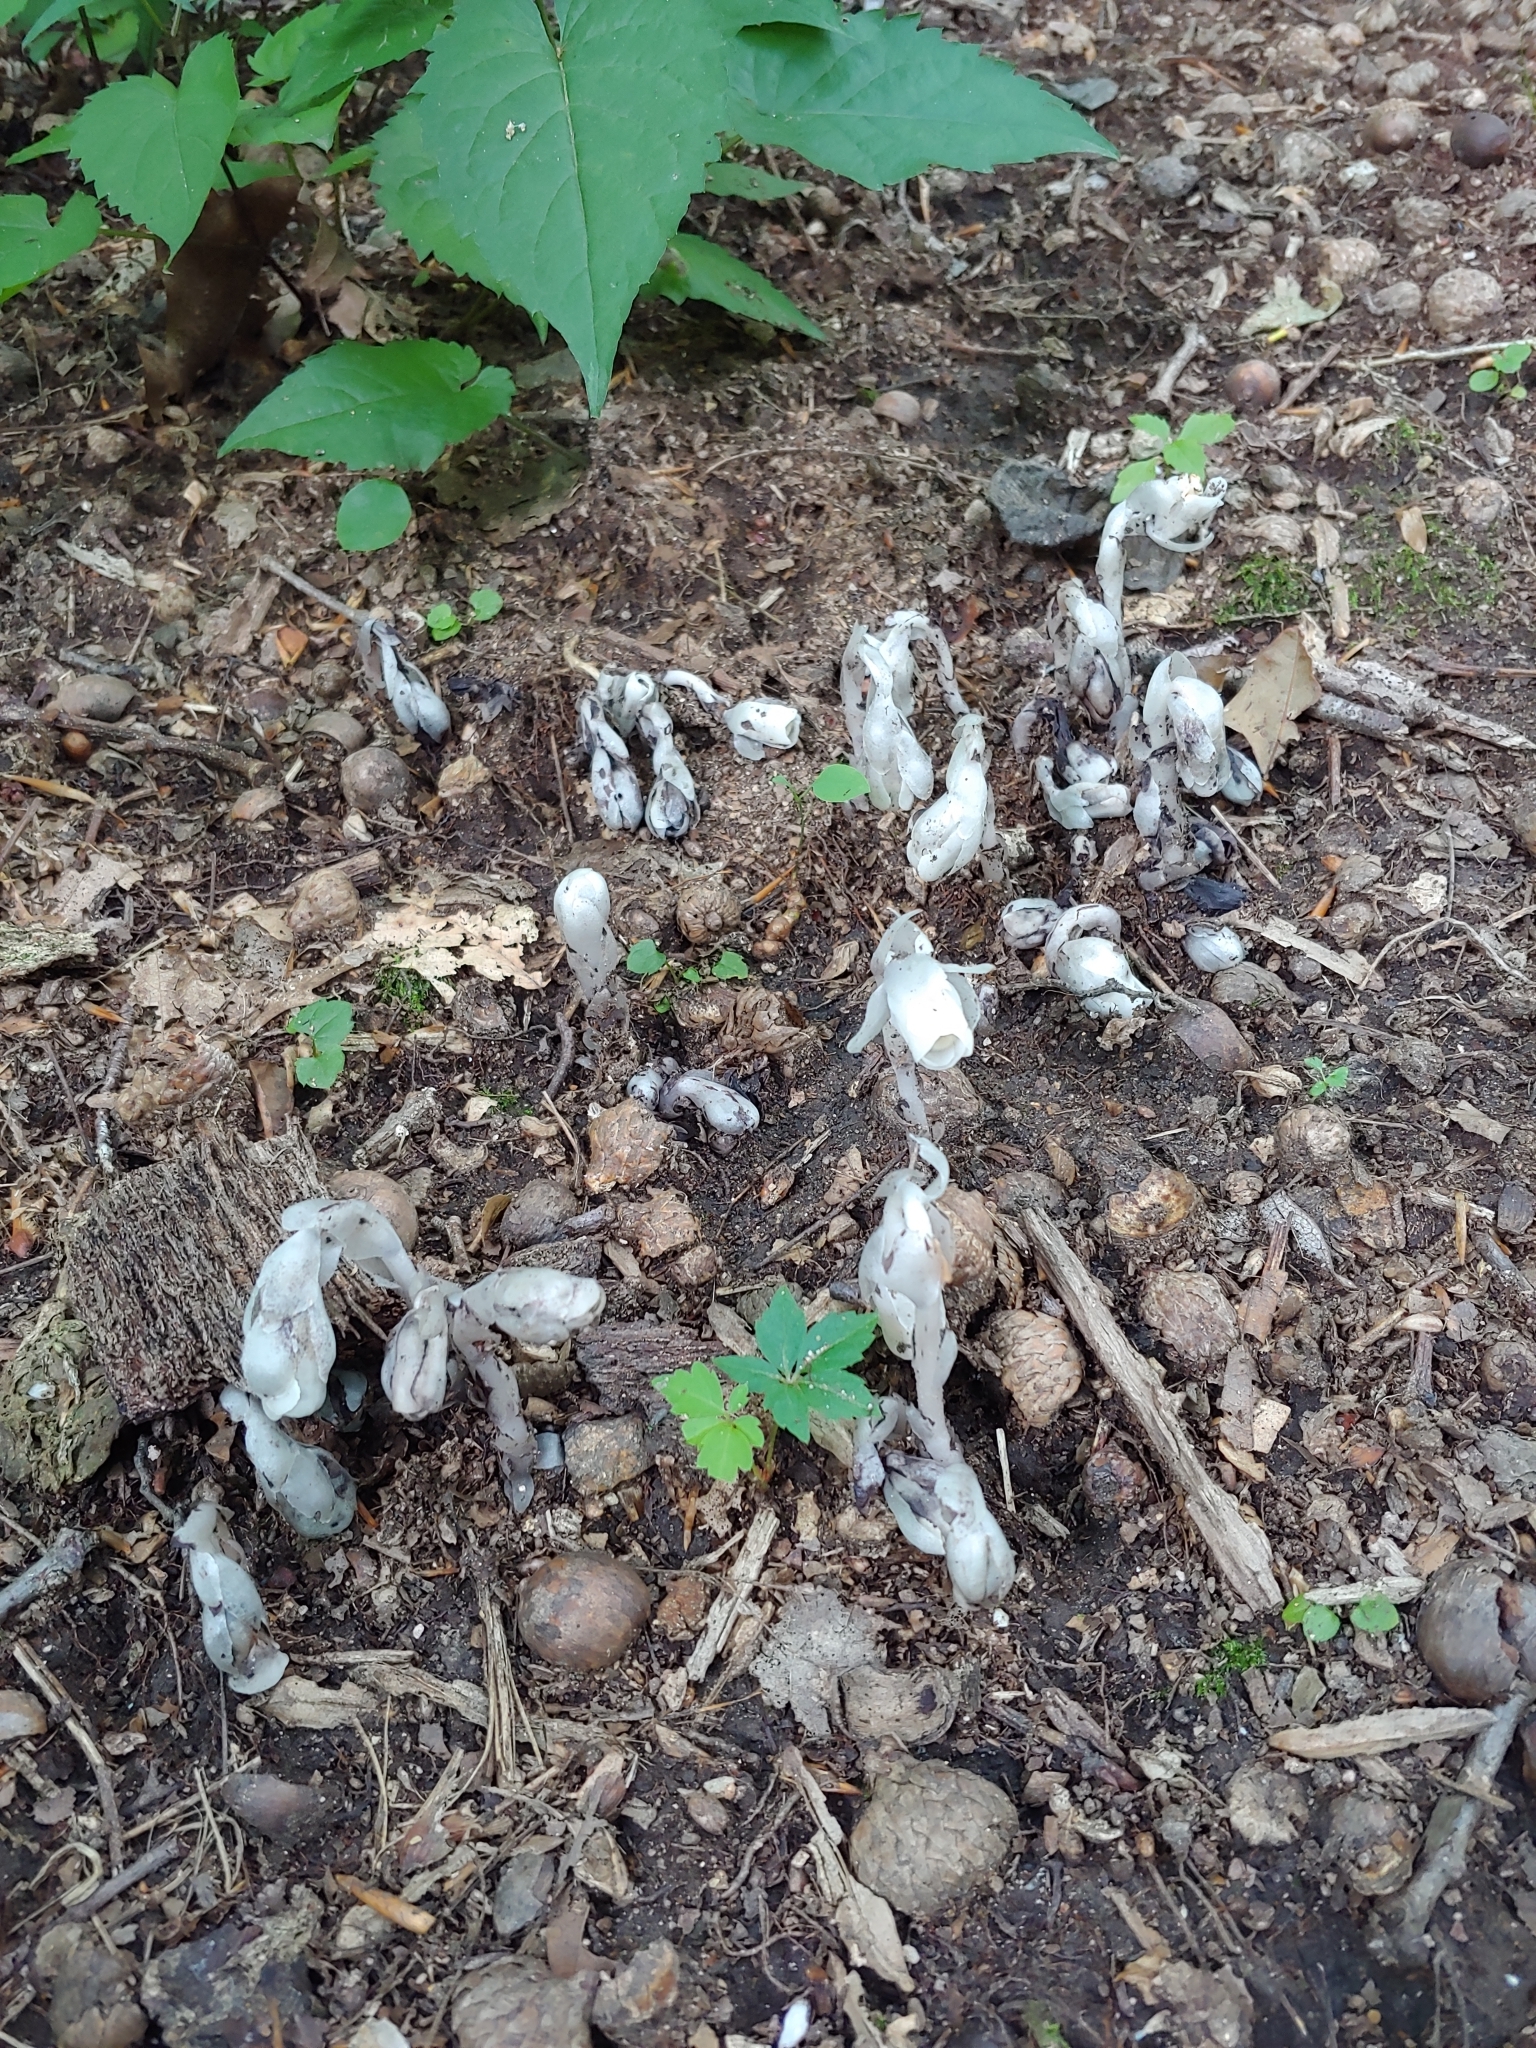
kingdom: Plantae
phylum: Tracheophyta
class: Magnoliopsida
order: Ericales
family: Ericaceae
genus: Monotropa
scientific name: Monotropa uniflora
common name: Convulsion root
